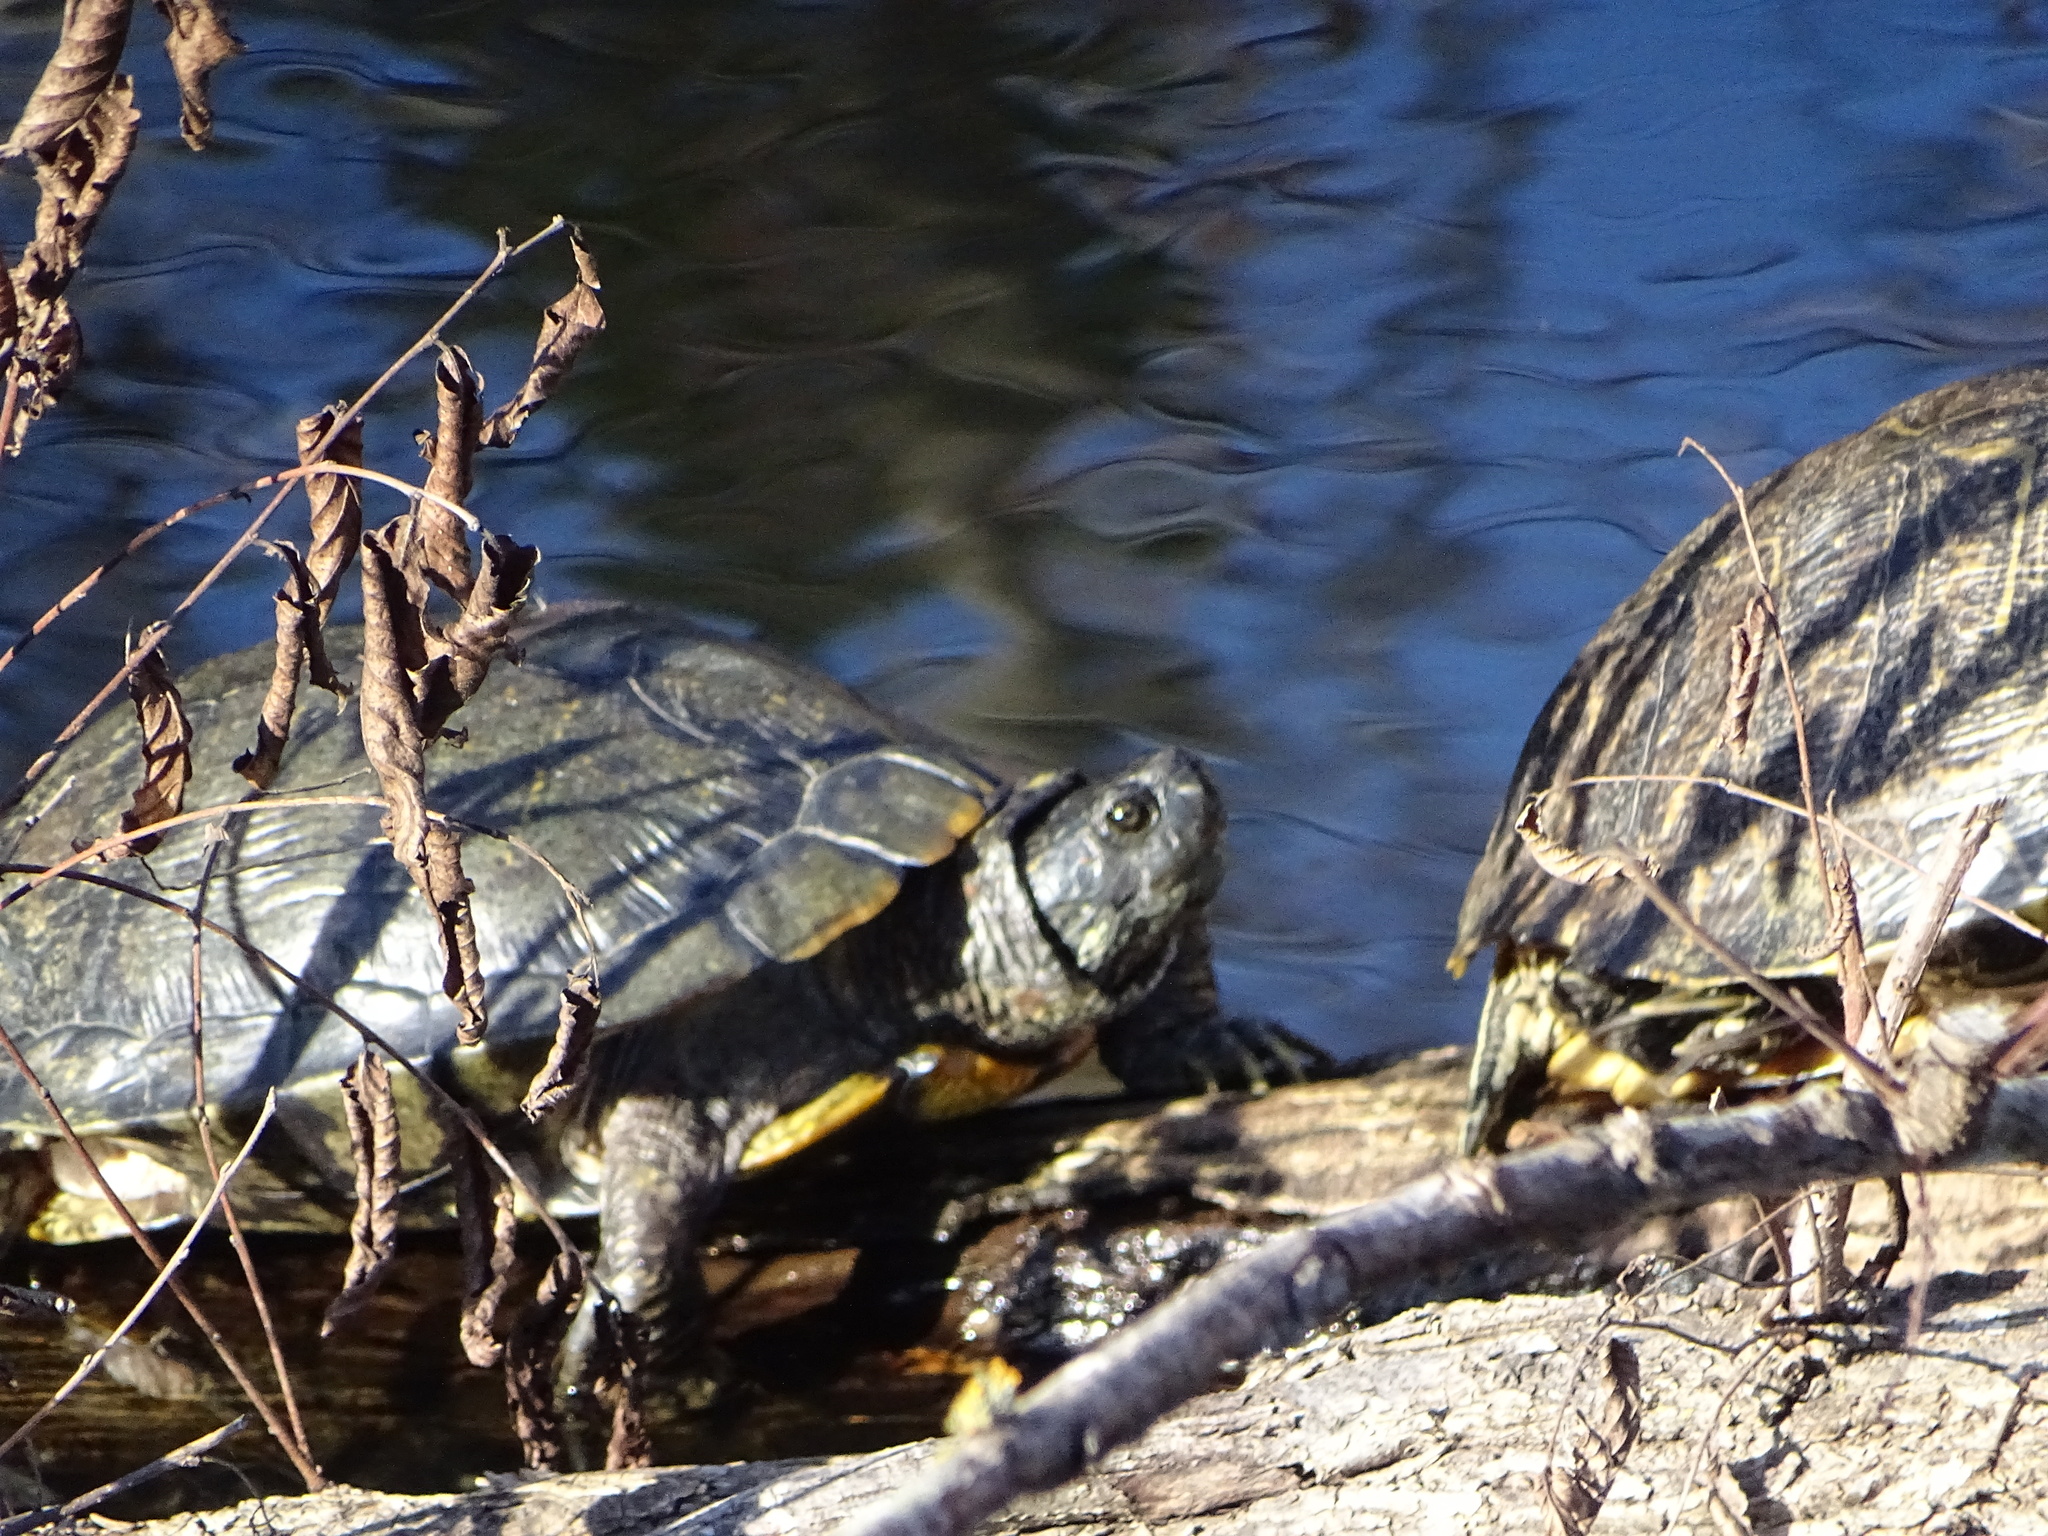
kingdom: Animalia
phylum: Chordata
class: Testudines
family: Emydidae
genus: Trachemys
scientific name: Trachemys scripta
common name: Slider
